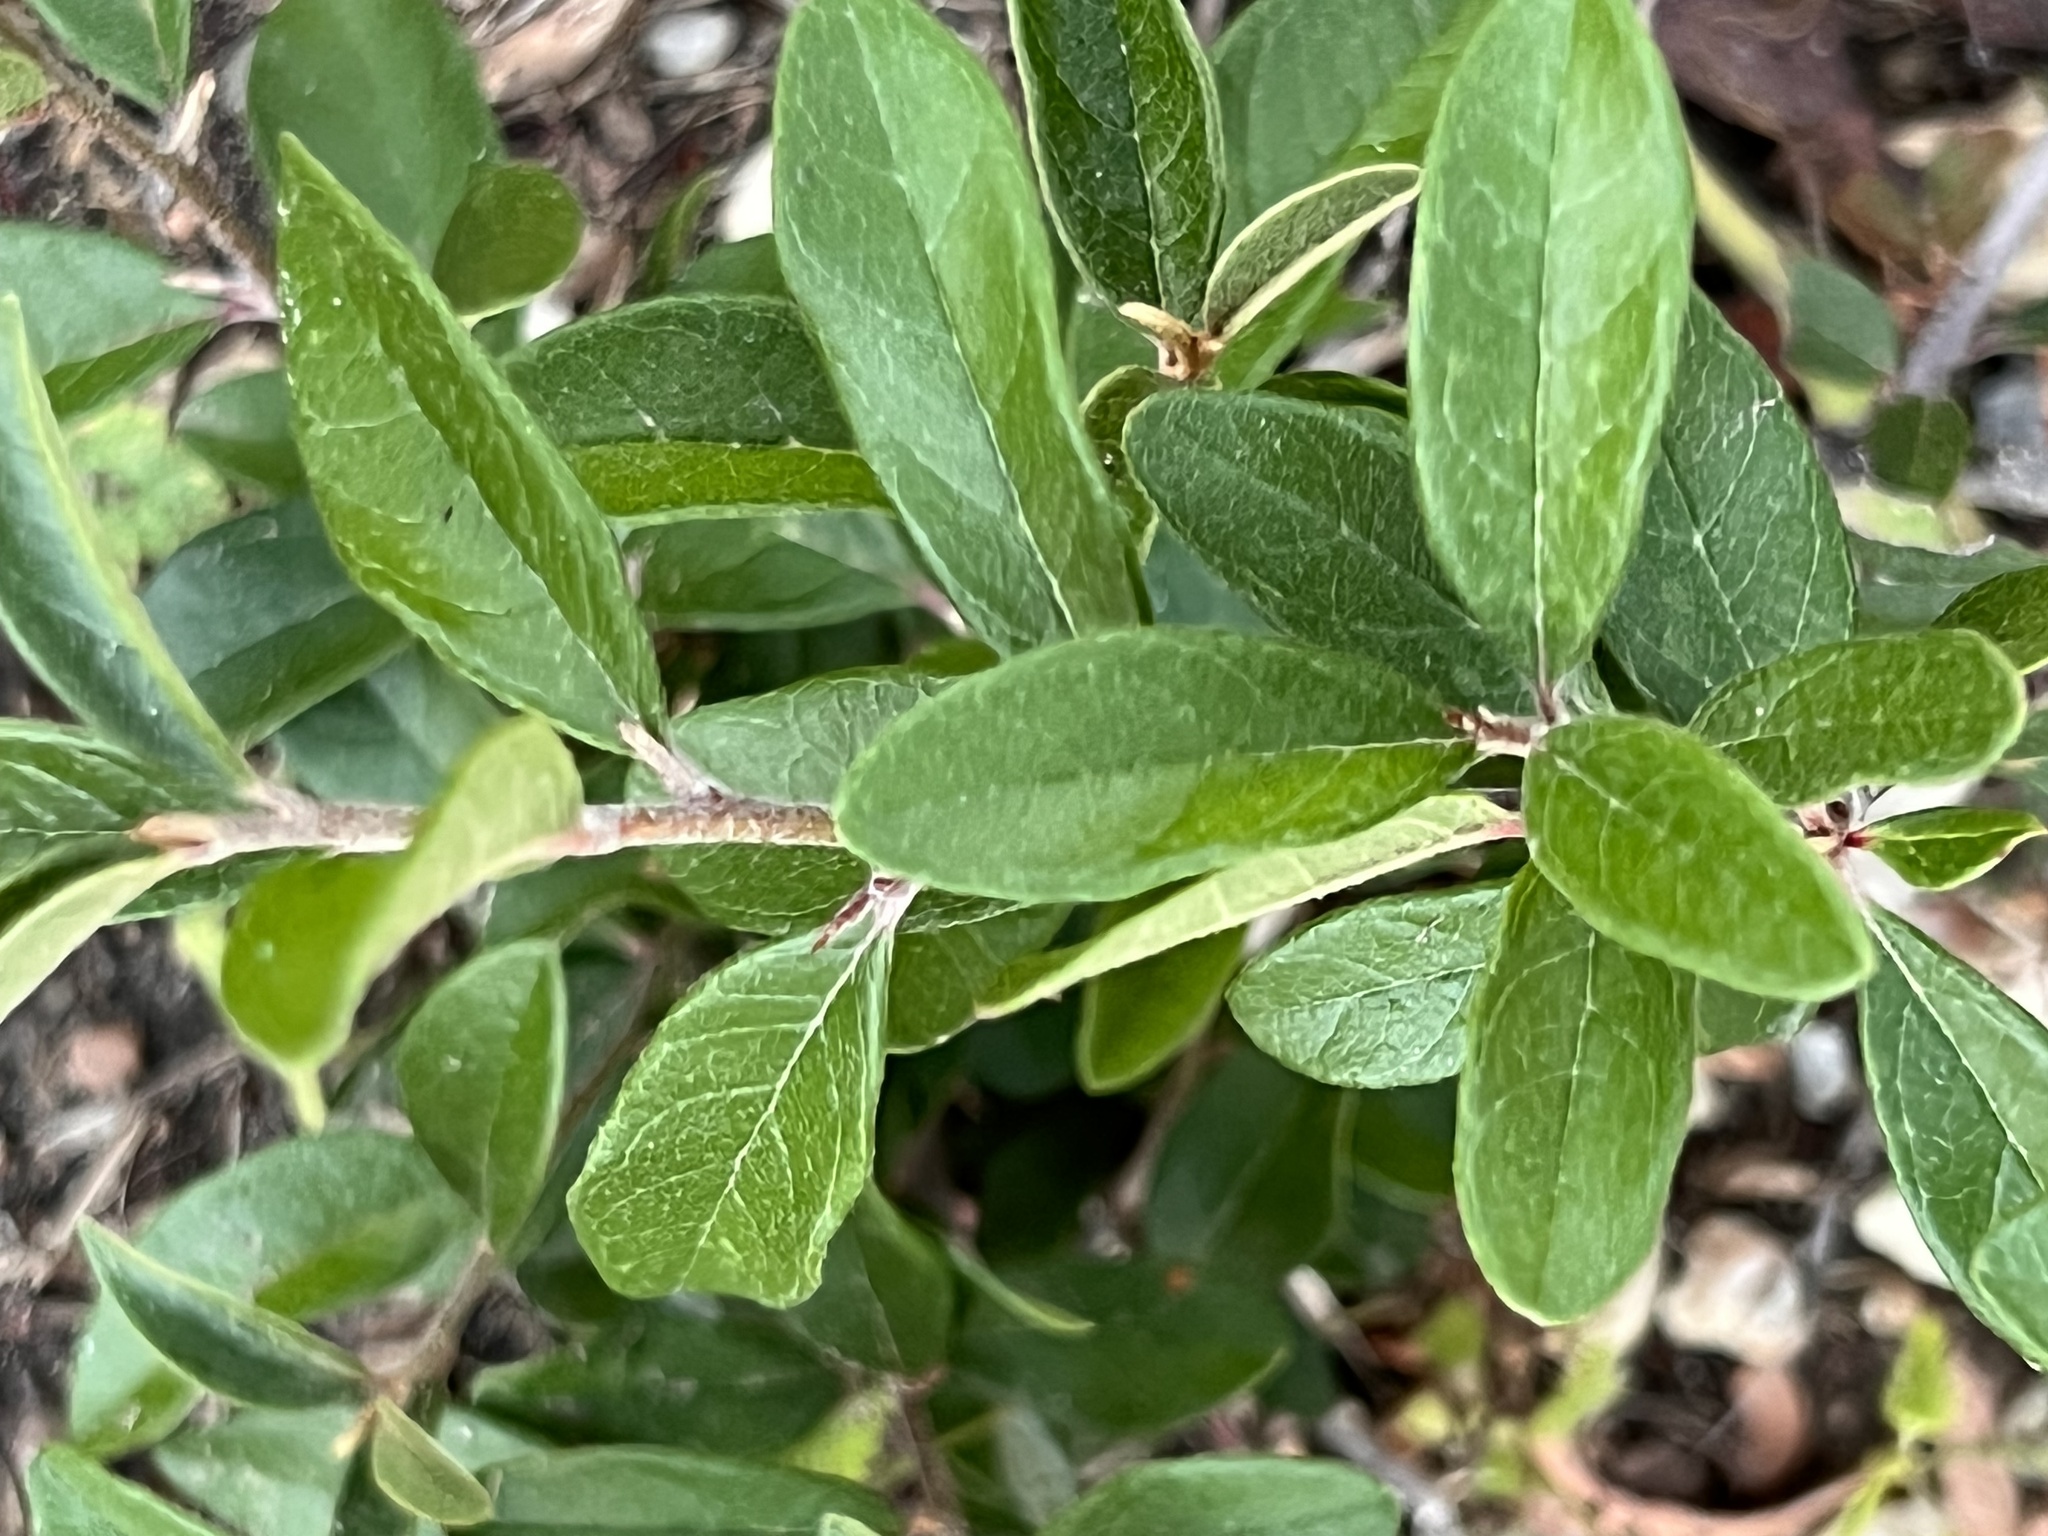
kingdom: Plantae
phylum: Tracheophyta
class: Magnoliopsida
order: Ericales
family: Sapotaceae
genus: Sideroxylon
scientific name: Sideroxylon lanuginosum
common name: Chittamwood
